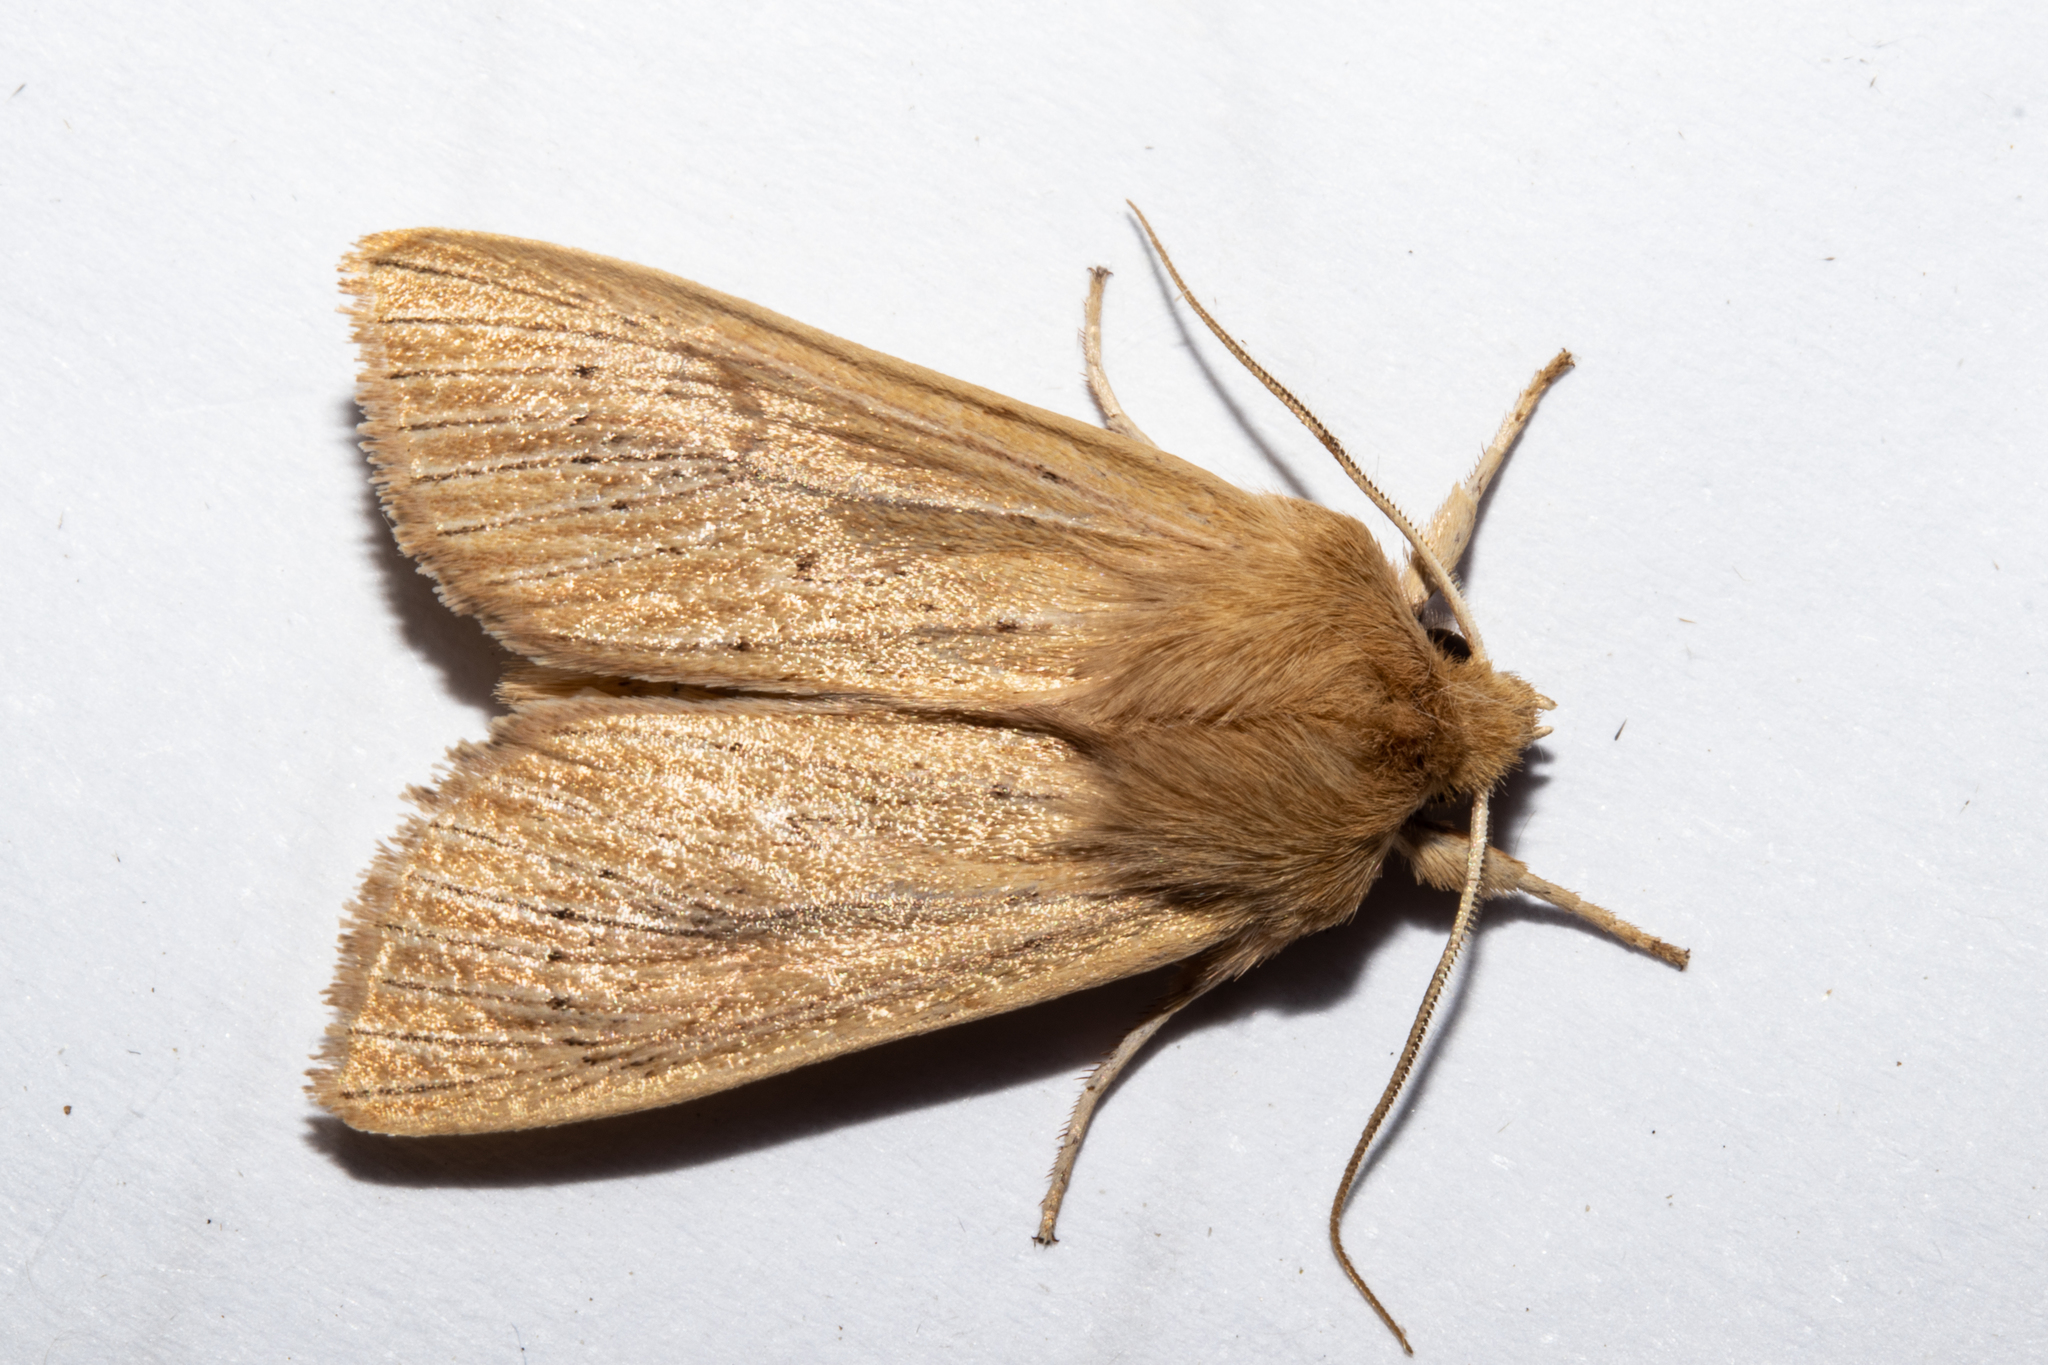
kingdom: Animalia
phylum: Arthropoda
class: Insecta
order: Lepidoptera
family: Noctuidae
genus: Ichneutica
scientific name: Ichneutica arotis
